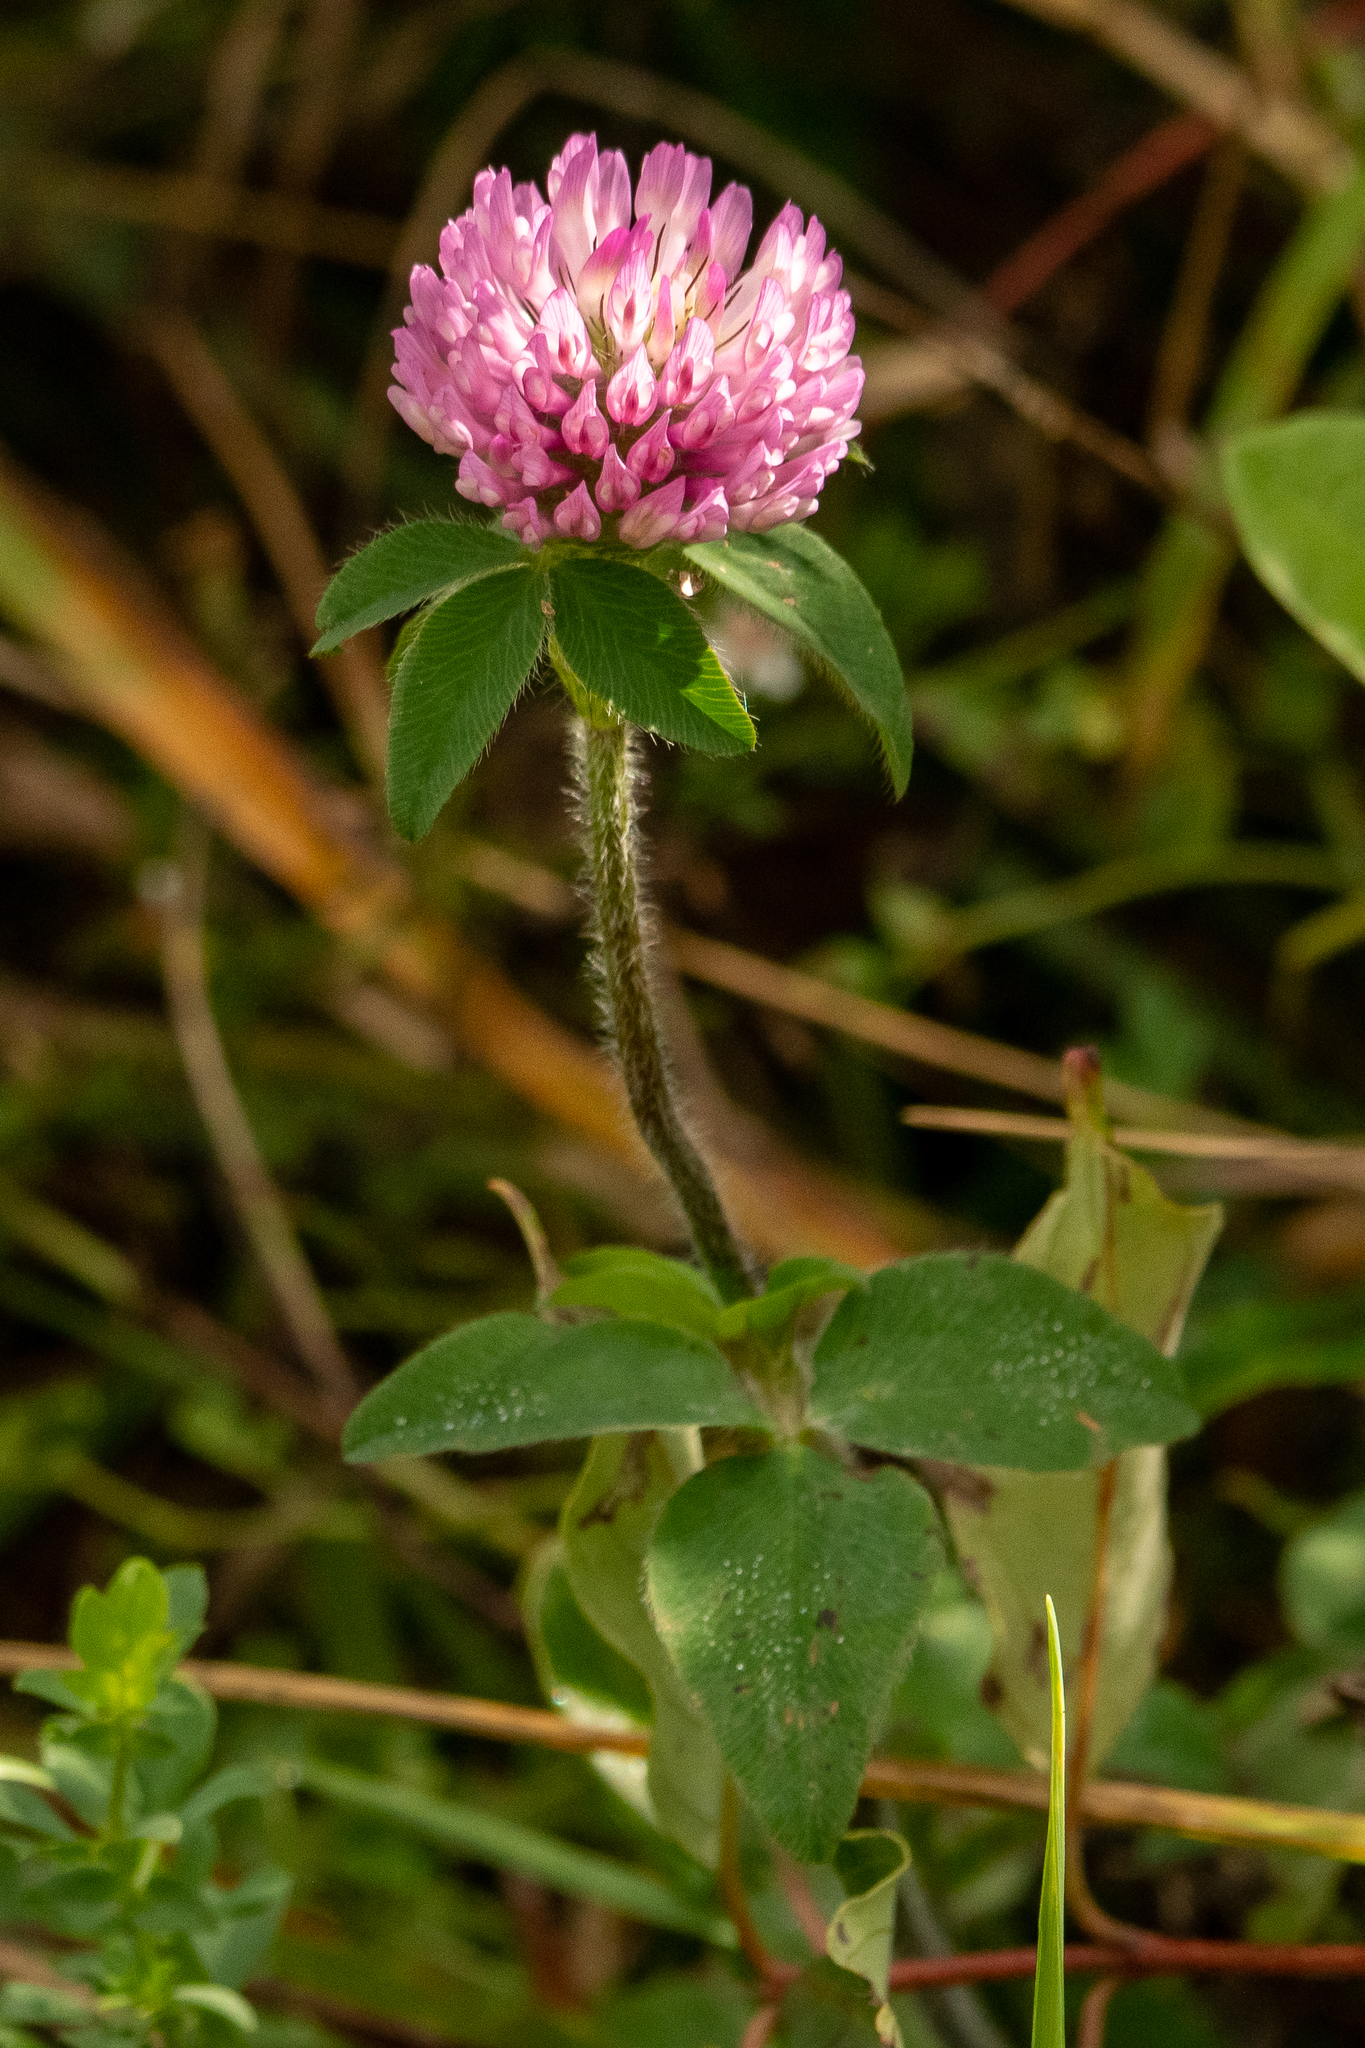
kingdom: Plantae
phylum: Tracheophyta
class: Magnoliopsida
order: Fabales
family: Fabaceae
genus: Trifolium
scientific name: Trifolium pratense
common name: Red clover
